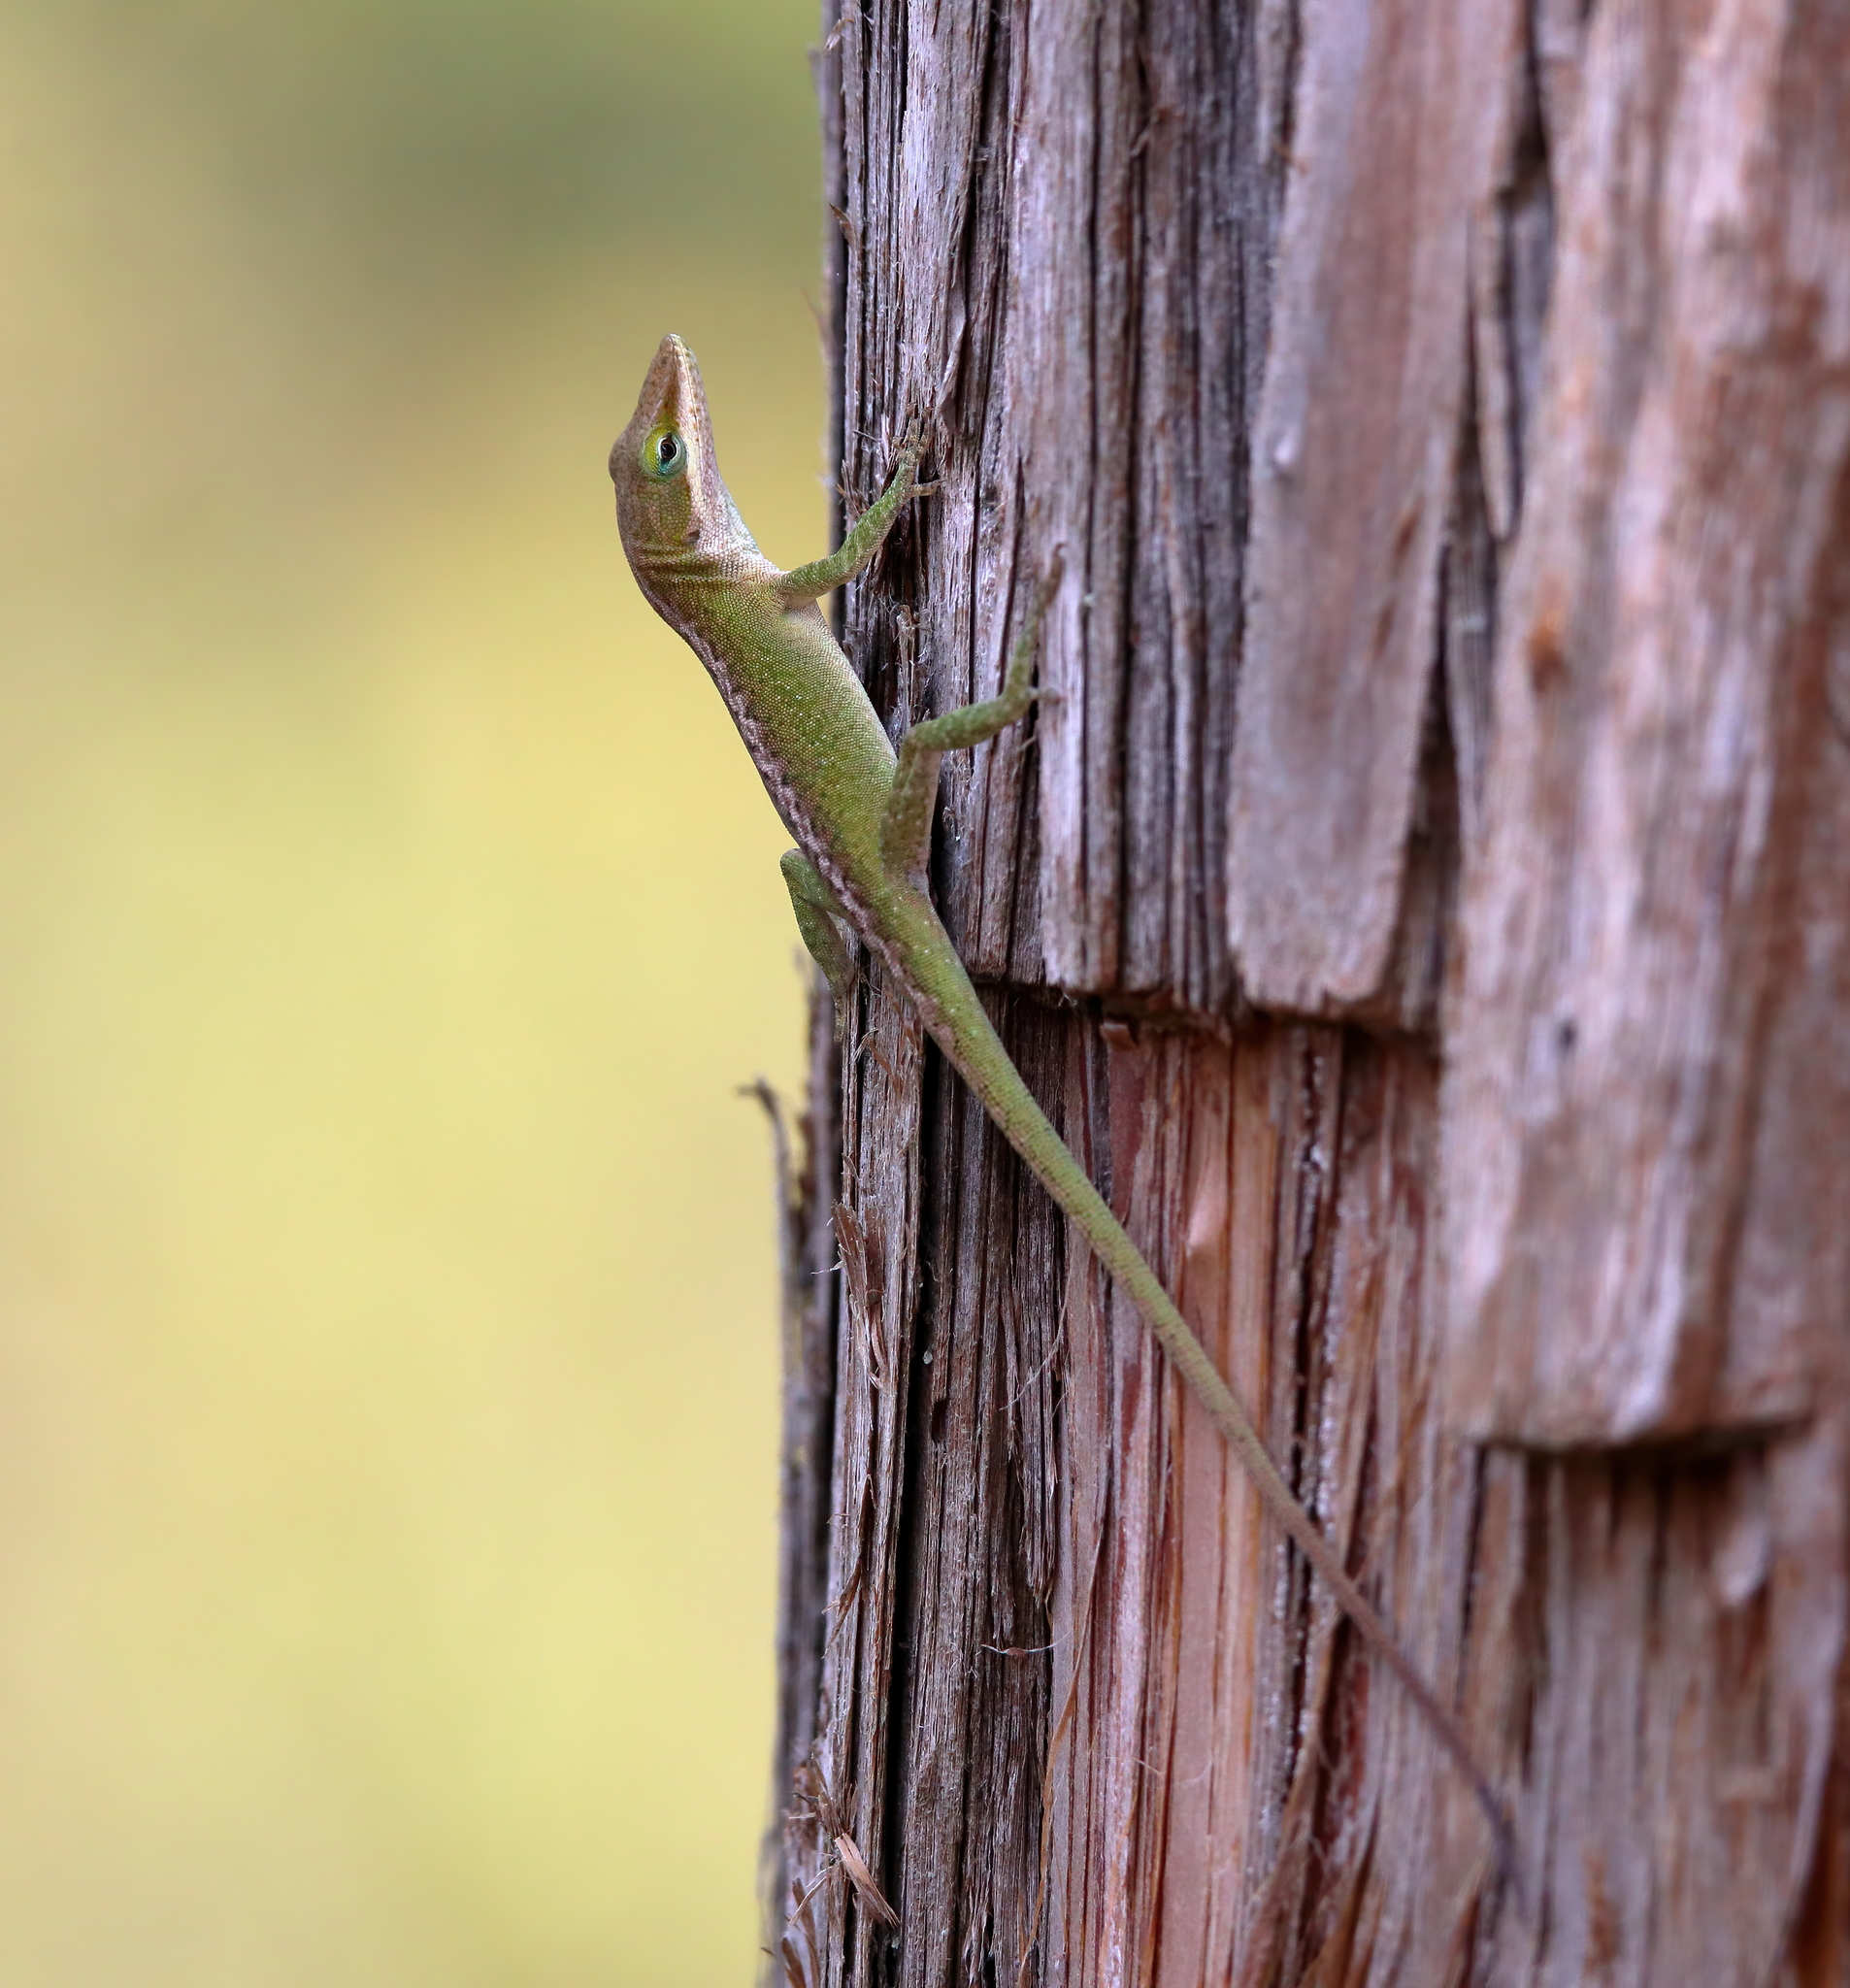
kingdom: Animalia
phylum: Chordata
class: Squamata
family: Dactyloidae
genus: Anolis
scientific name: Anolis carolinensis
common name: Green anole
